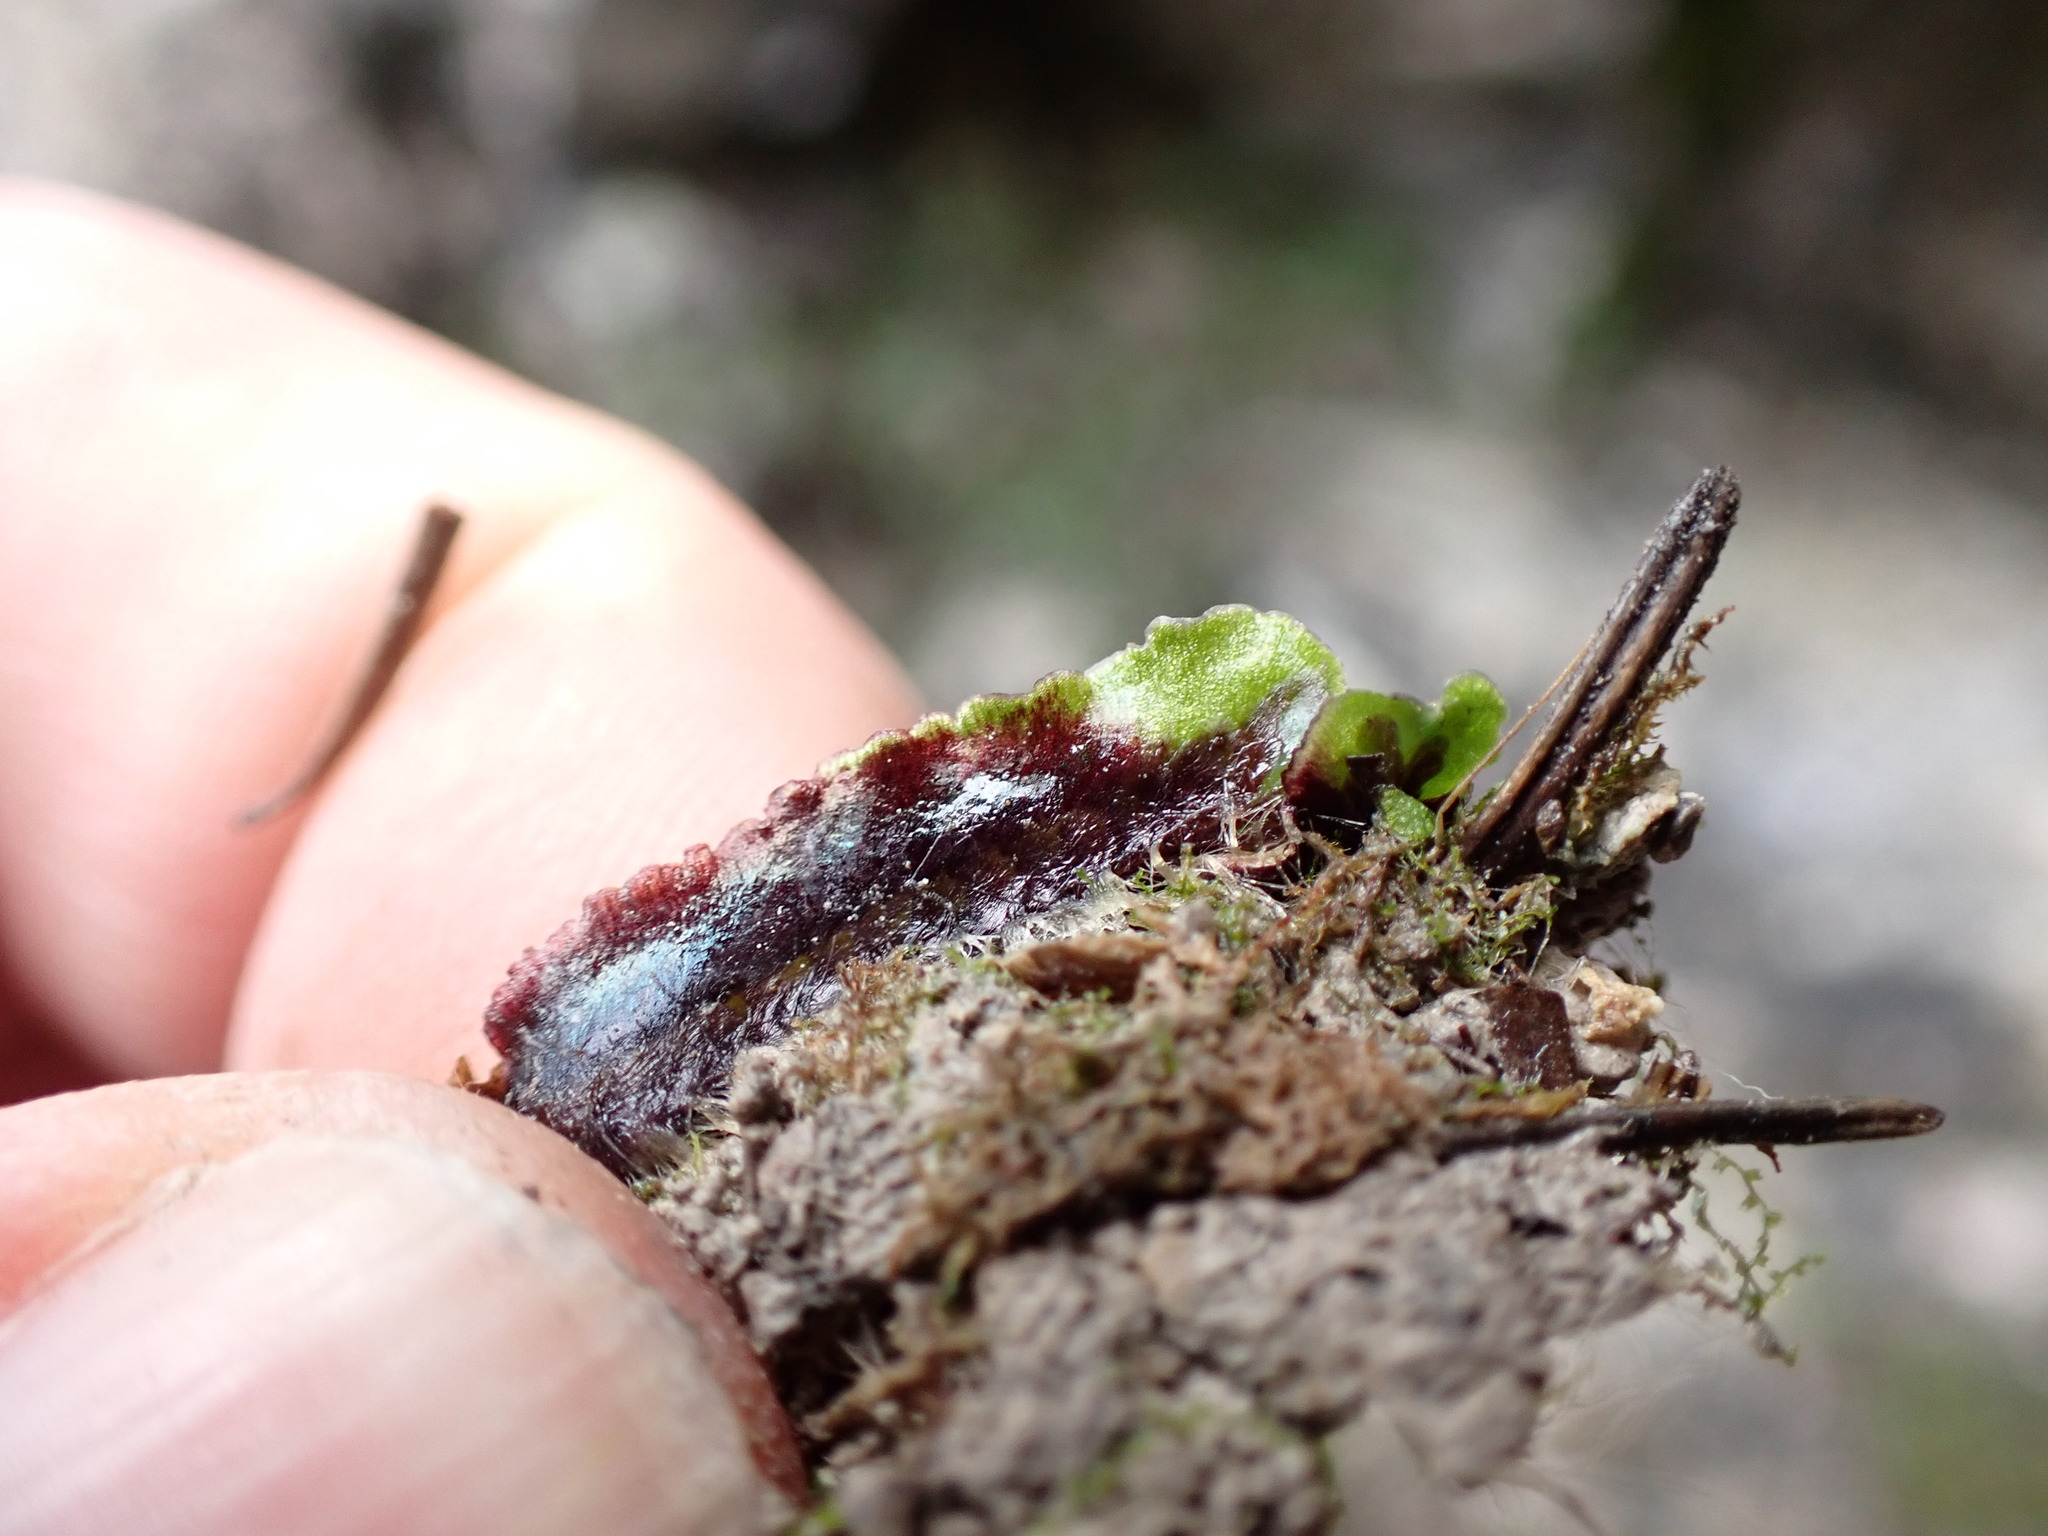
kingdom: Plantae
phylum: Marchantiophyta
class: Marchantiopsida
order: Marchantiales
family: Marchantiaceae
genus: Marchantia
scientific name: Marchantia quadrata
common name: Narrow mushroom-headed liverwort
